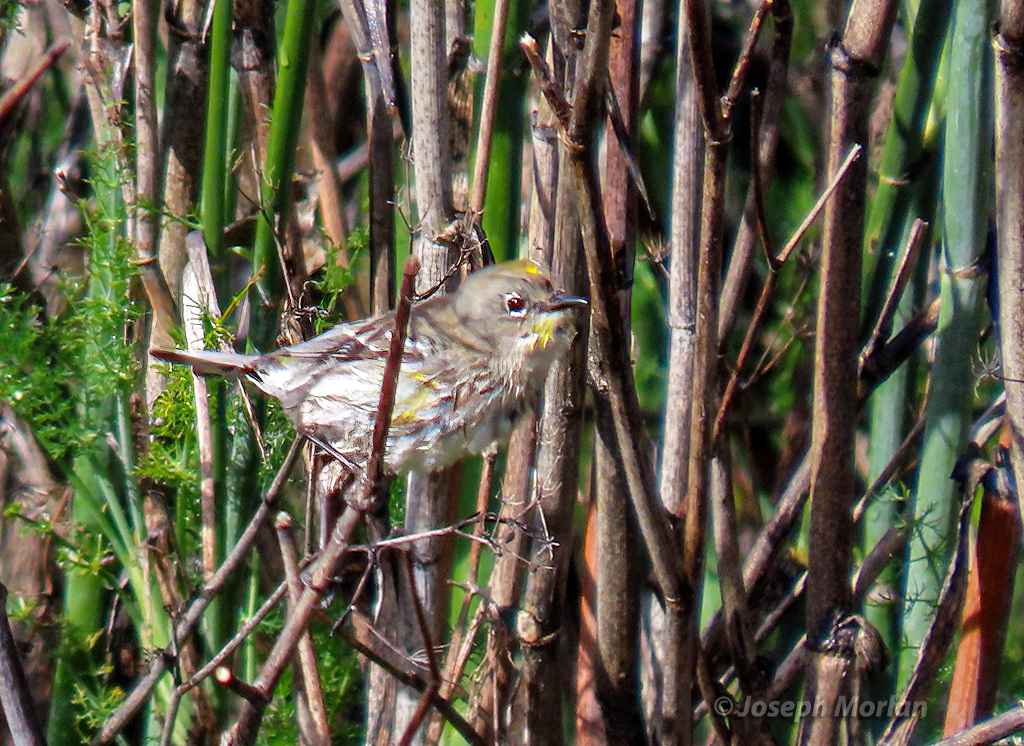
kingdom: Animalia
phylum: Chordata
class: Aves
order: Passeriformes
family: Parulidae
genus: Setophaga
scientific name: Setophaga coronata
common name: Myrtle warbler
